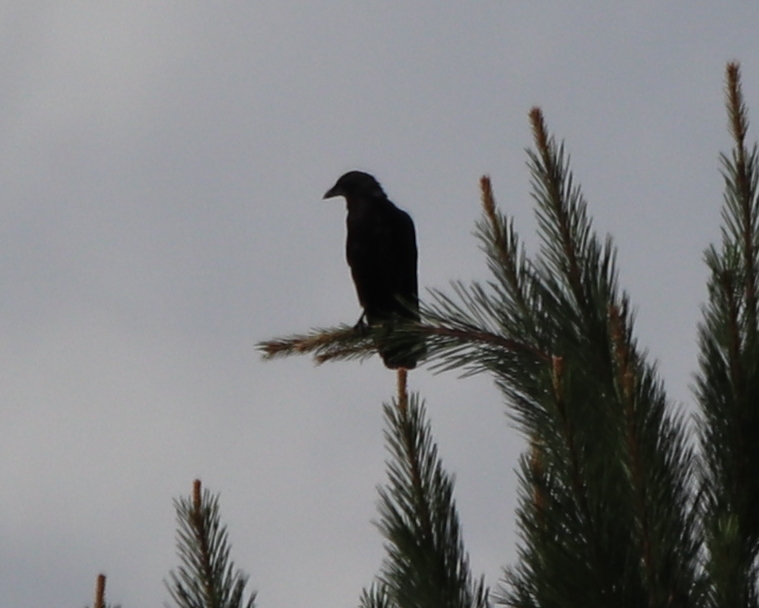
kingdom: Animalia
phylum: Chordata
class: Aves
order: Passeriformes
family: Corvidae
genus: Corvus
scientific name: Corvus
